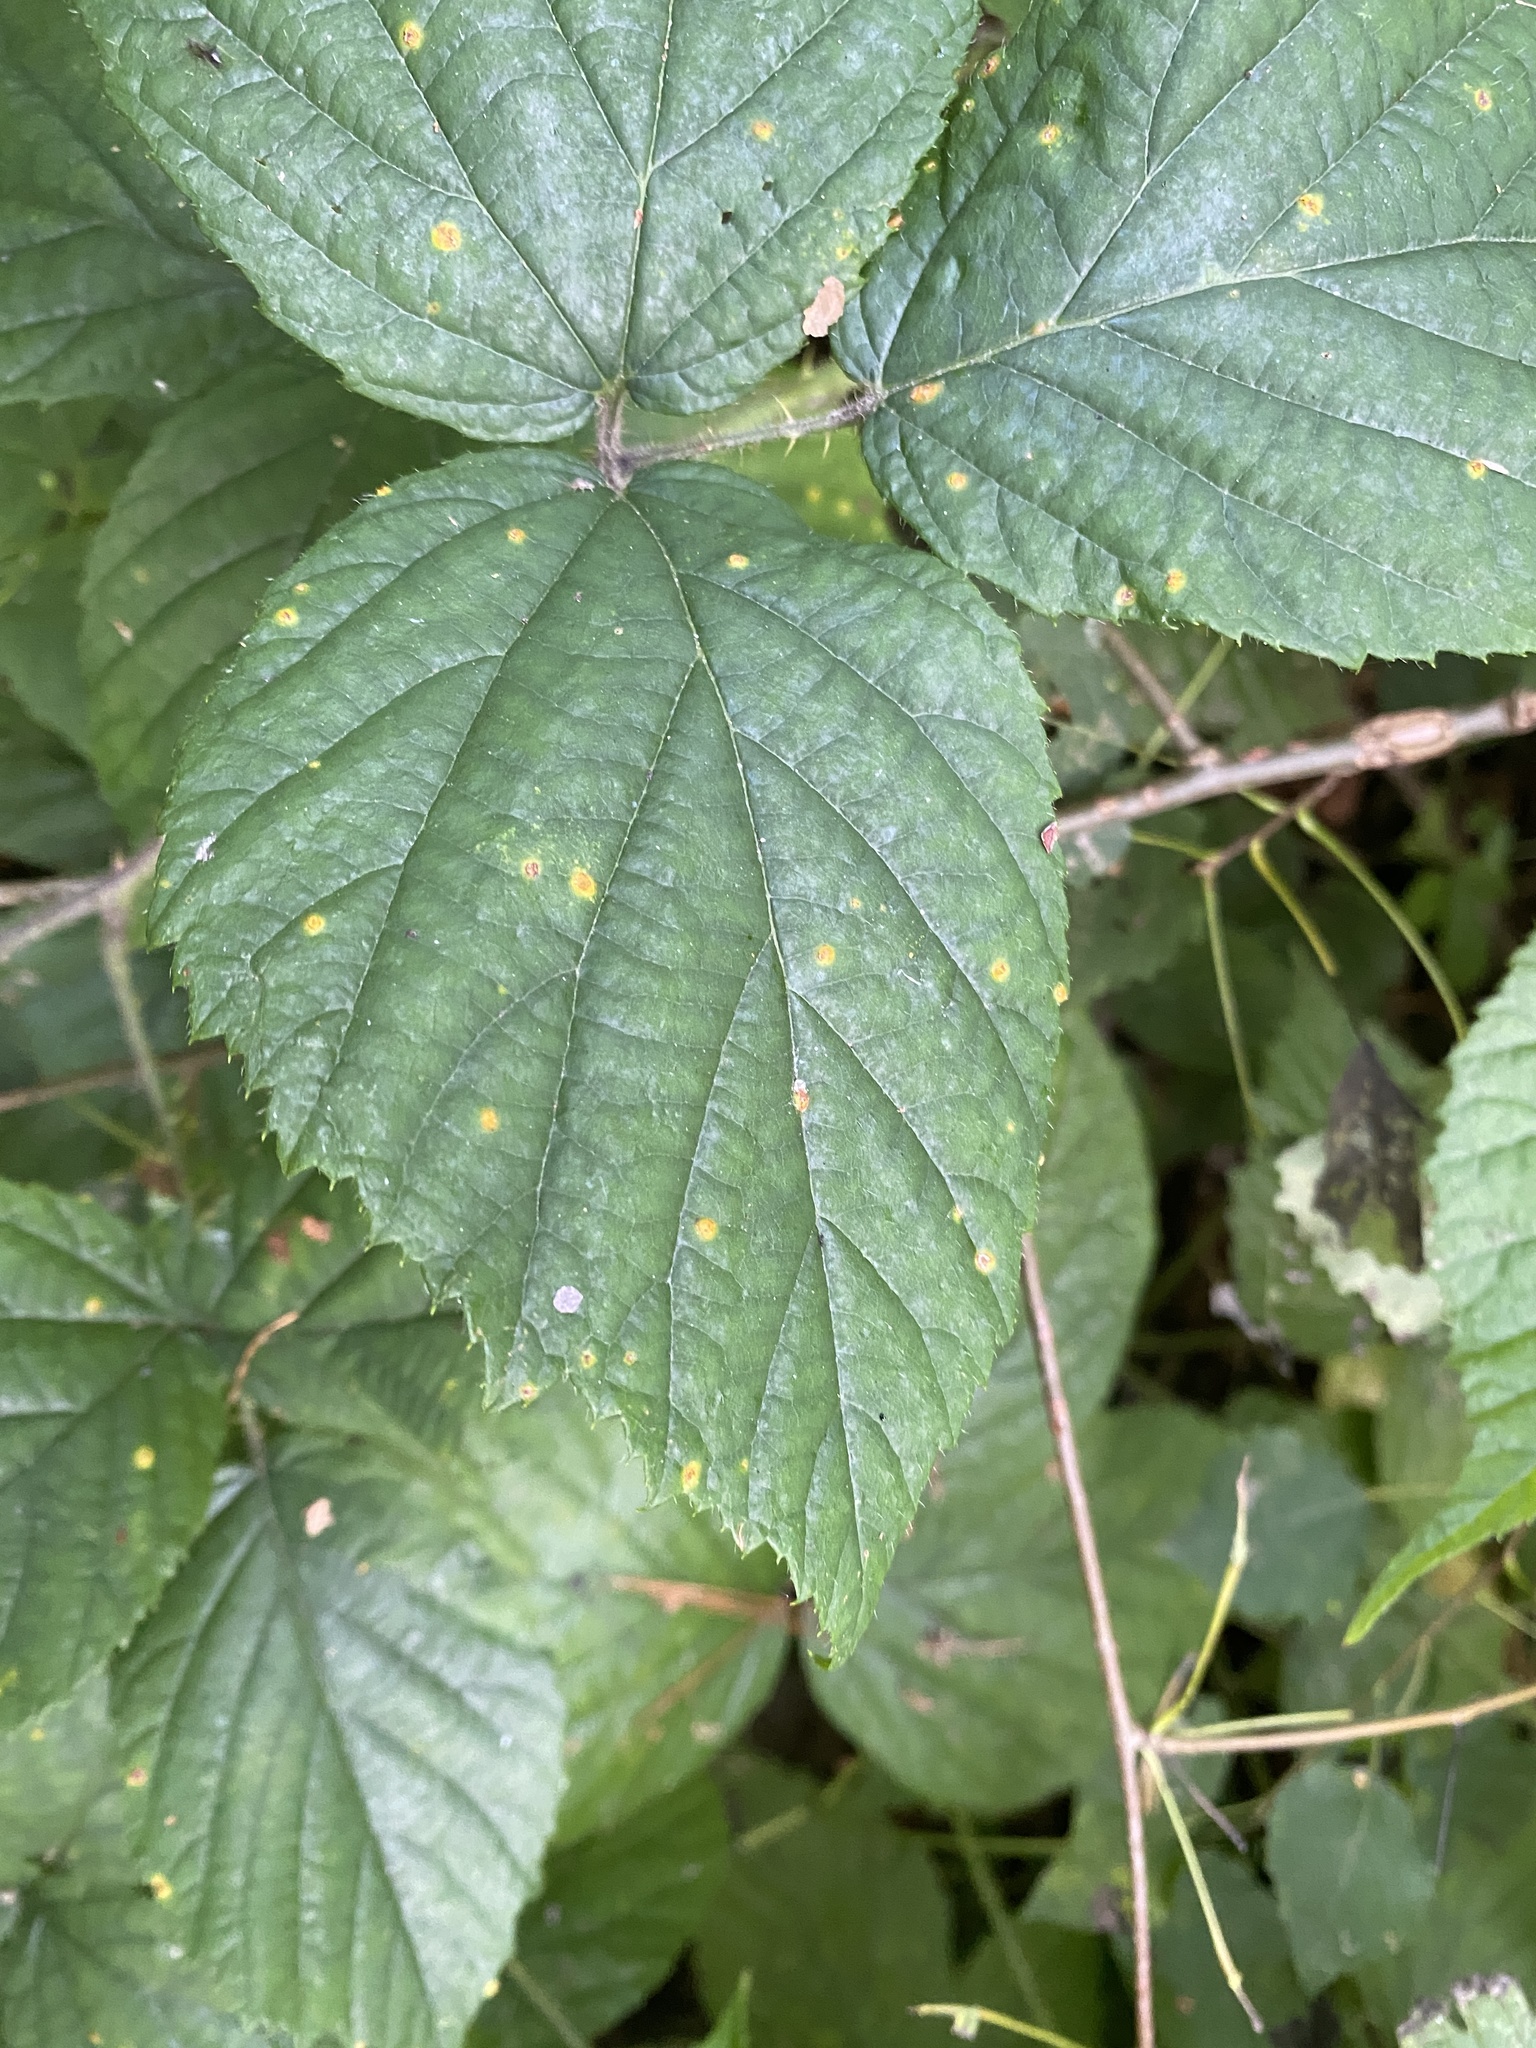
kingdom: Fungi
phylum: Basidiomycota
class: Pucciniomycetes
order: Pucciniales
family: Phragmidiaceae
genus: Kuehneola
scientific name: Kuehneola uredinis
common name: Bramble stem rust
